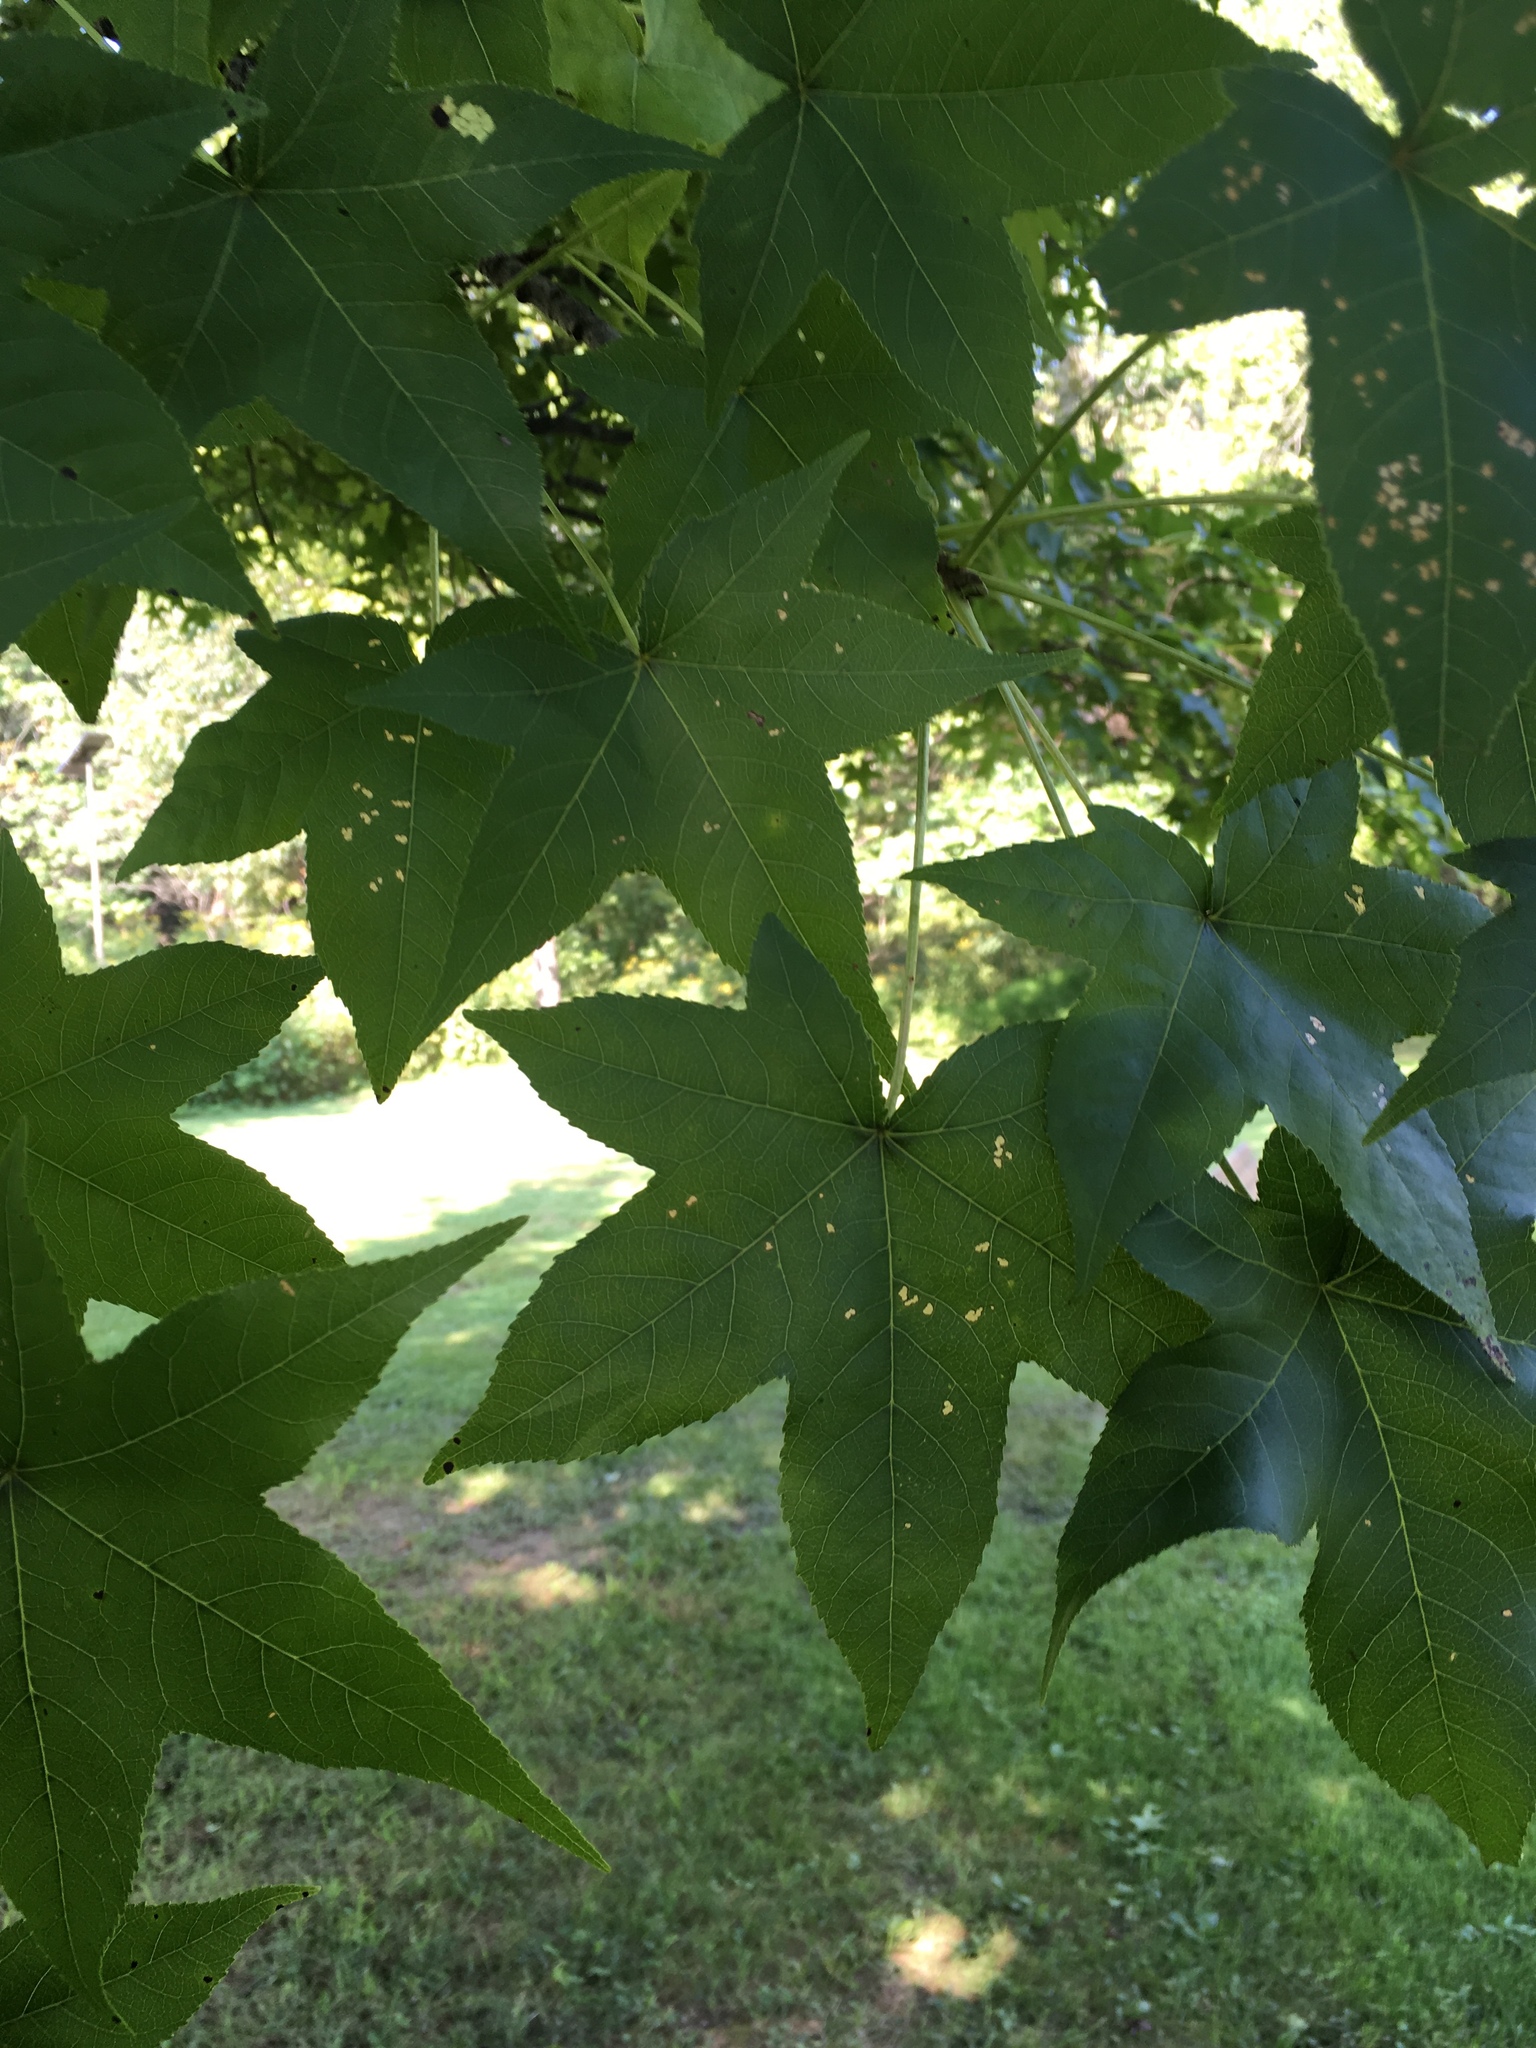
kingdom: Plantae
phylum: Tracheophyta
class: Magnoliopsida
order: Saxifragales
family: Altingiaceae
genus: Liquidambar
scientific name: Liquidambar styraciflua
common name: Sweet gum
